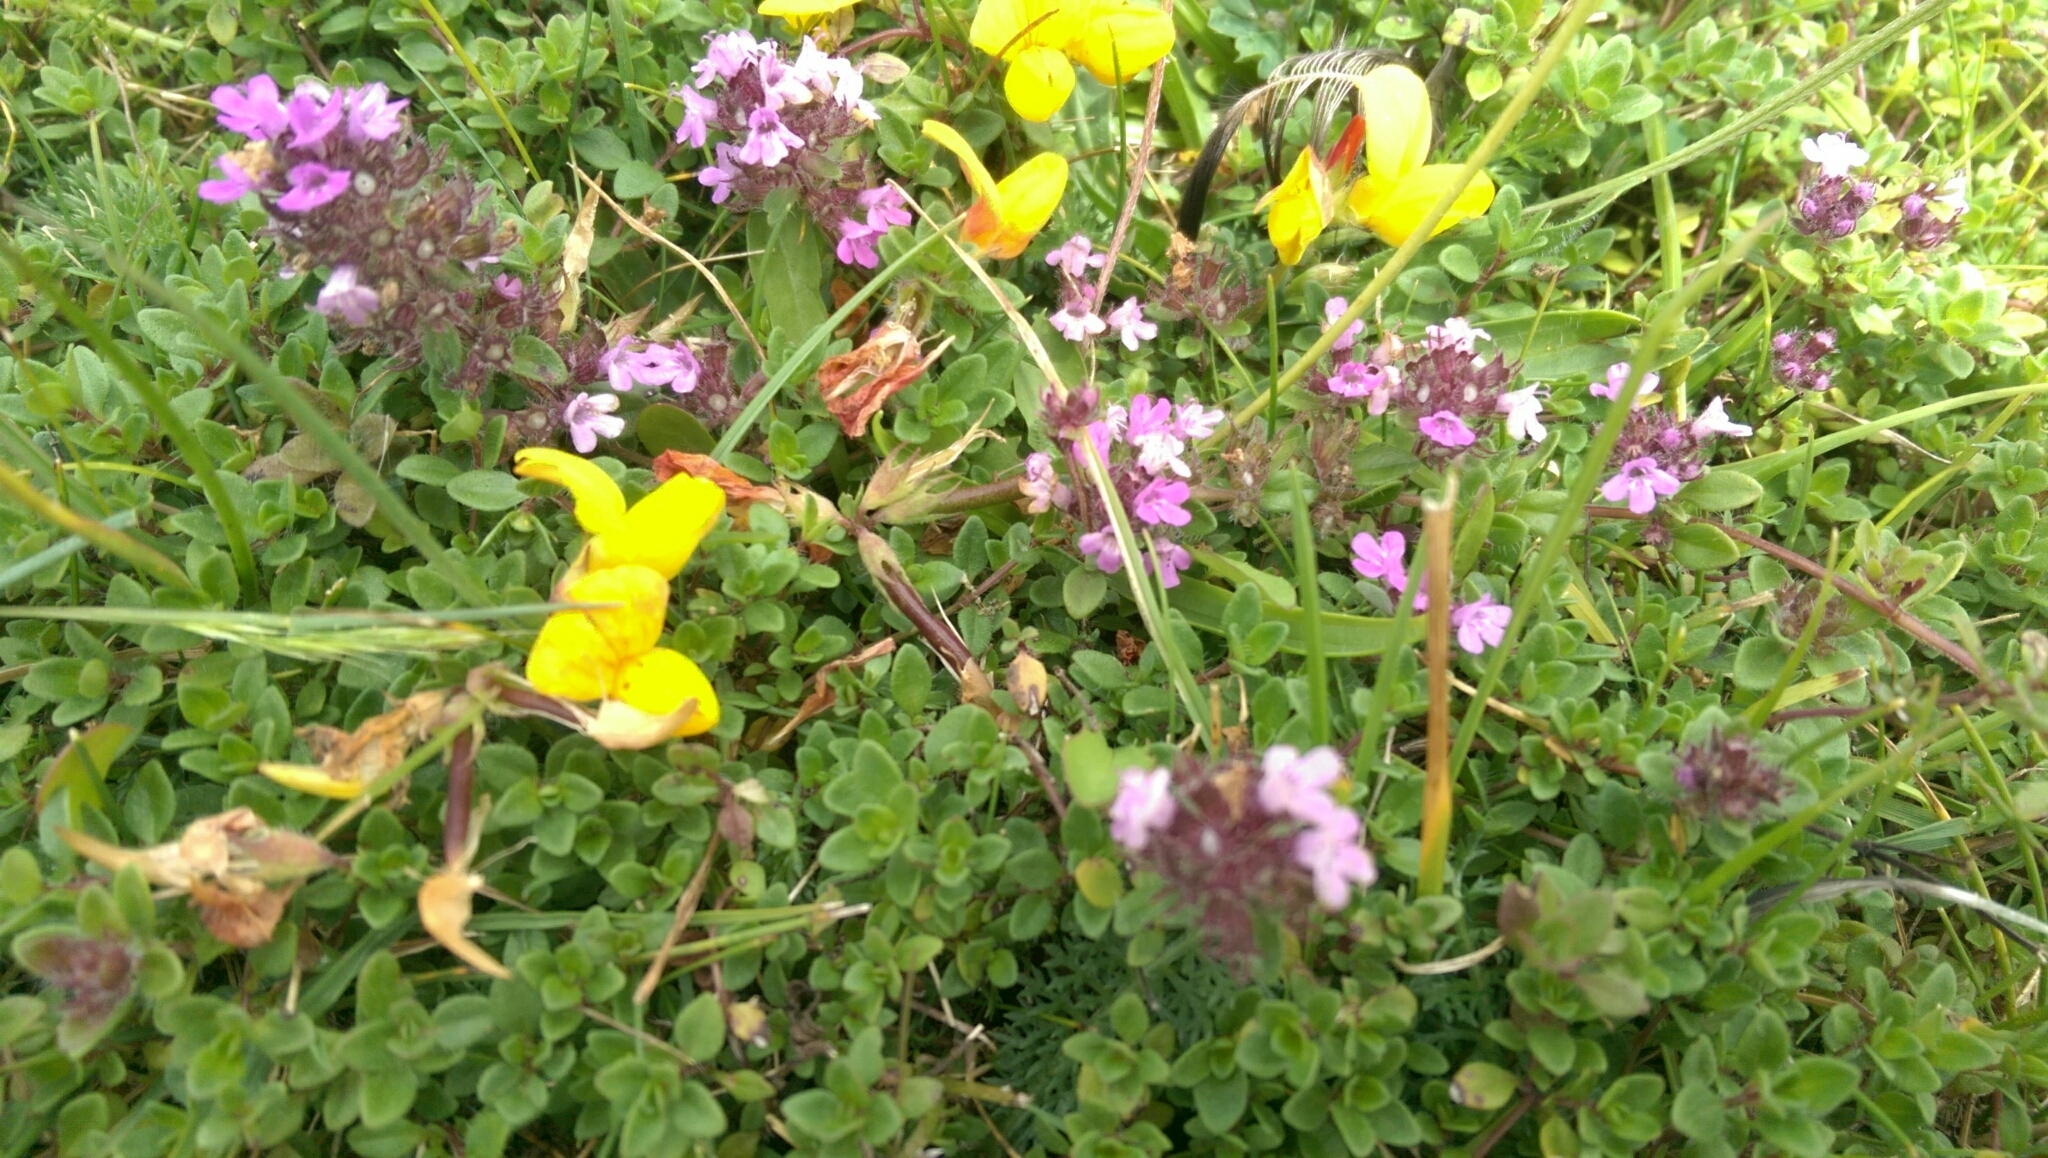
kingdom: Plantae
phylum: Tracheophyta
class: Magnoliopsida
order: Lamiales
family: Lamiaceae
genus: Thymus
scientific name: Thymus praecox
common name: Wild thyme
